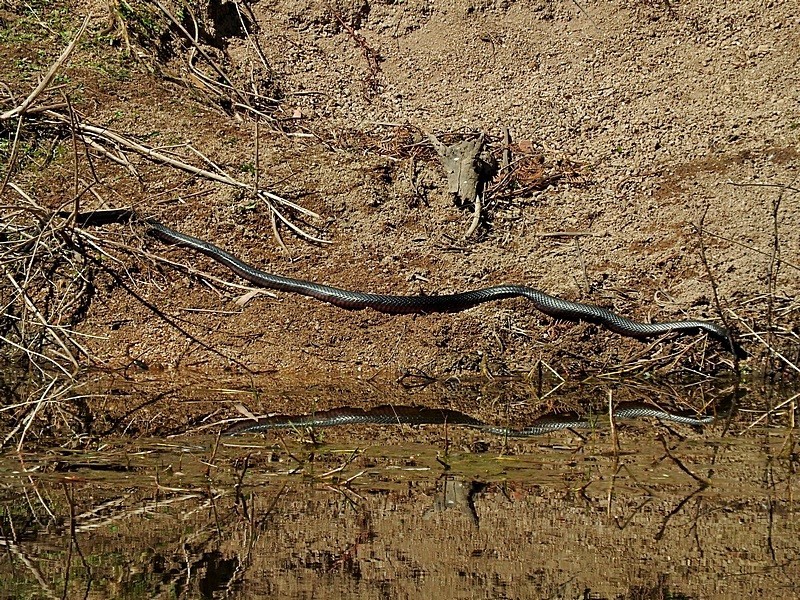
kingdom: Animalia
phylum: Chordata
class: Squamata
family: Elapidae
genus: Pseudechis
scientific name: Pseudechis porphyriacus
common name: Australian black snake
